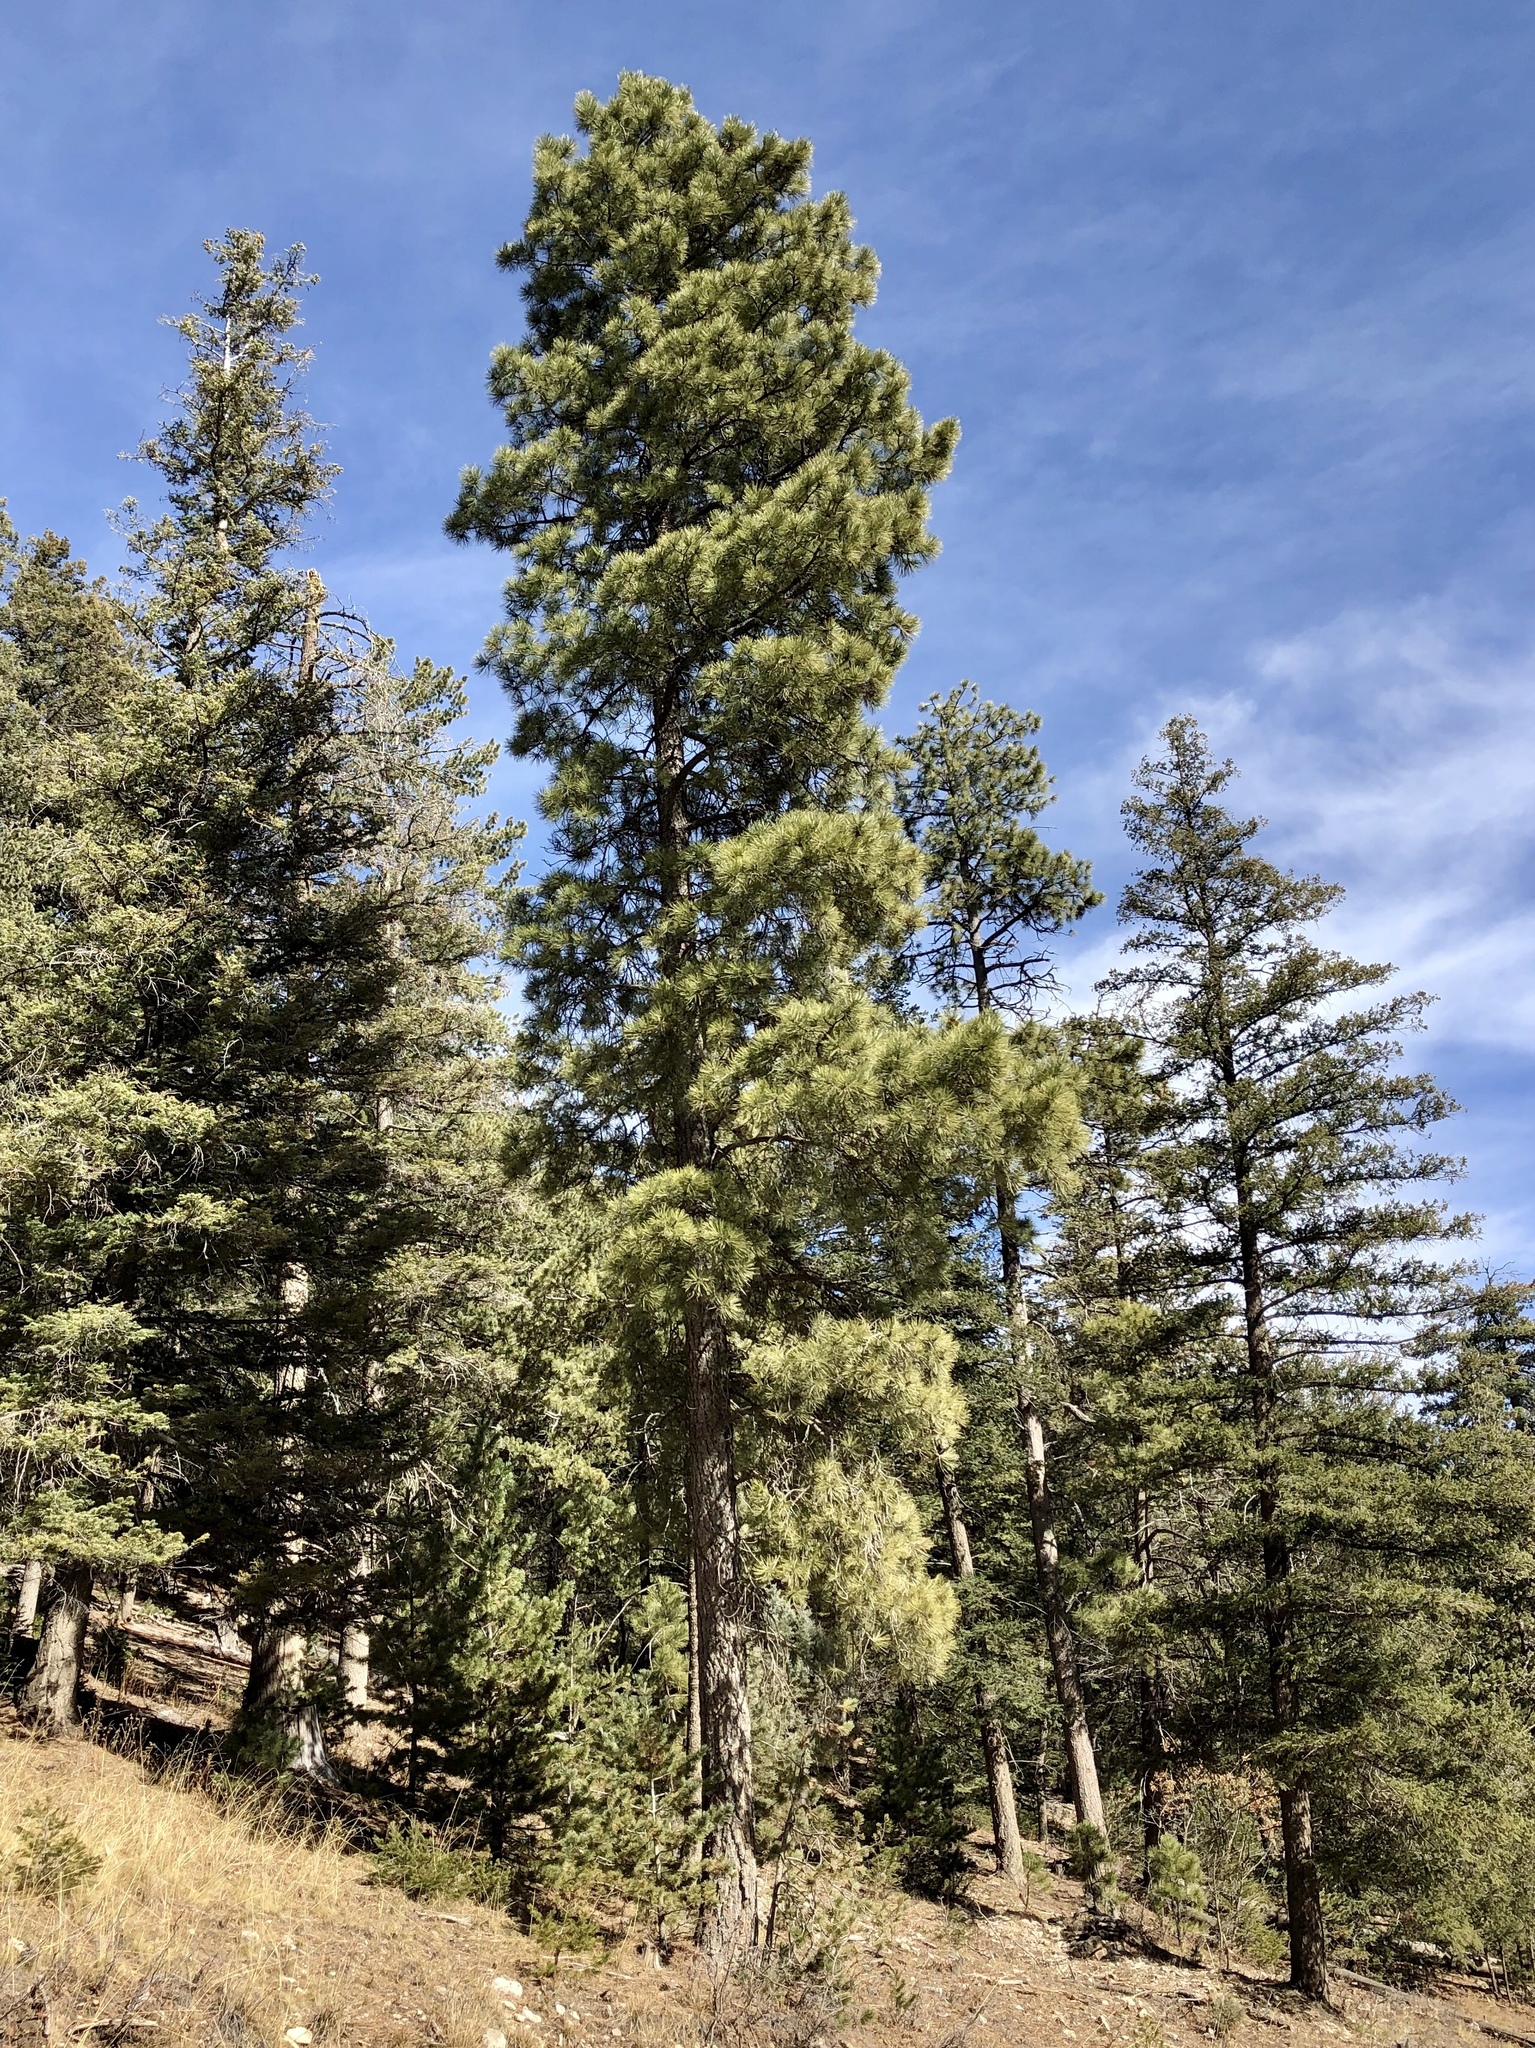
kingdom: Plantae
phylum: Tracheophyta
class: Pinopsida
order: Pinales
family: Pinaceae
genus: Pinus
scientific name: Pinus ponderosa
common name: Western yellow-pine
